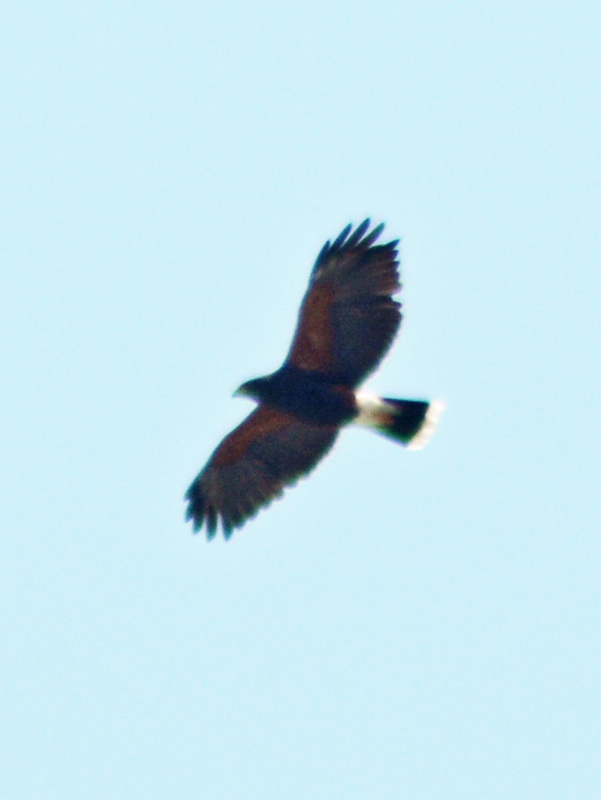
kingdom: Animalia
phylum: Chordata
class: Aves
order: Accipitriformes
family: Accipitridae
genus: Parabuteo
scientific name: Parabuteo unicinctus
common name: Harris's hawk
